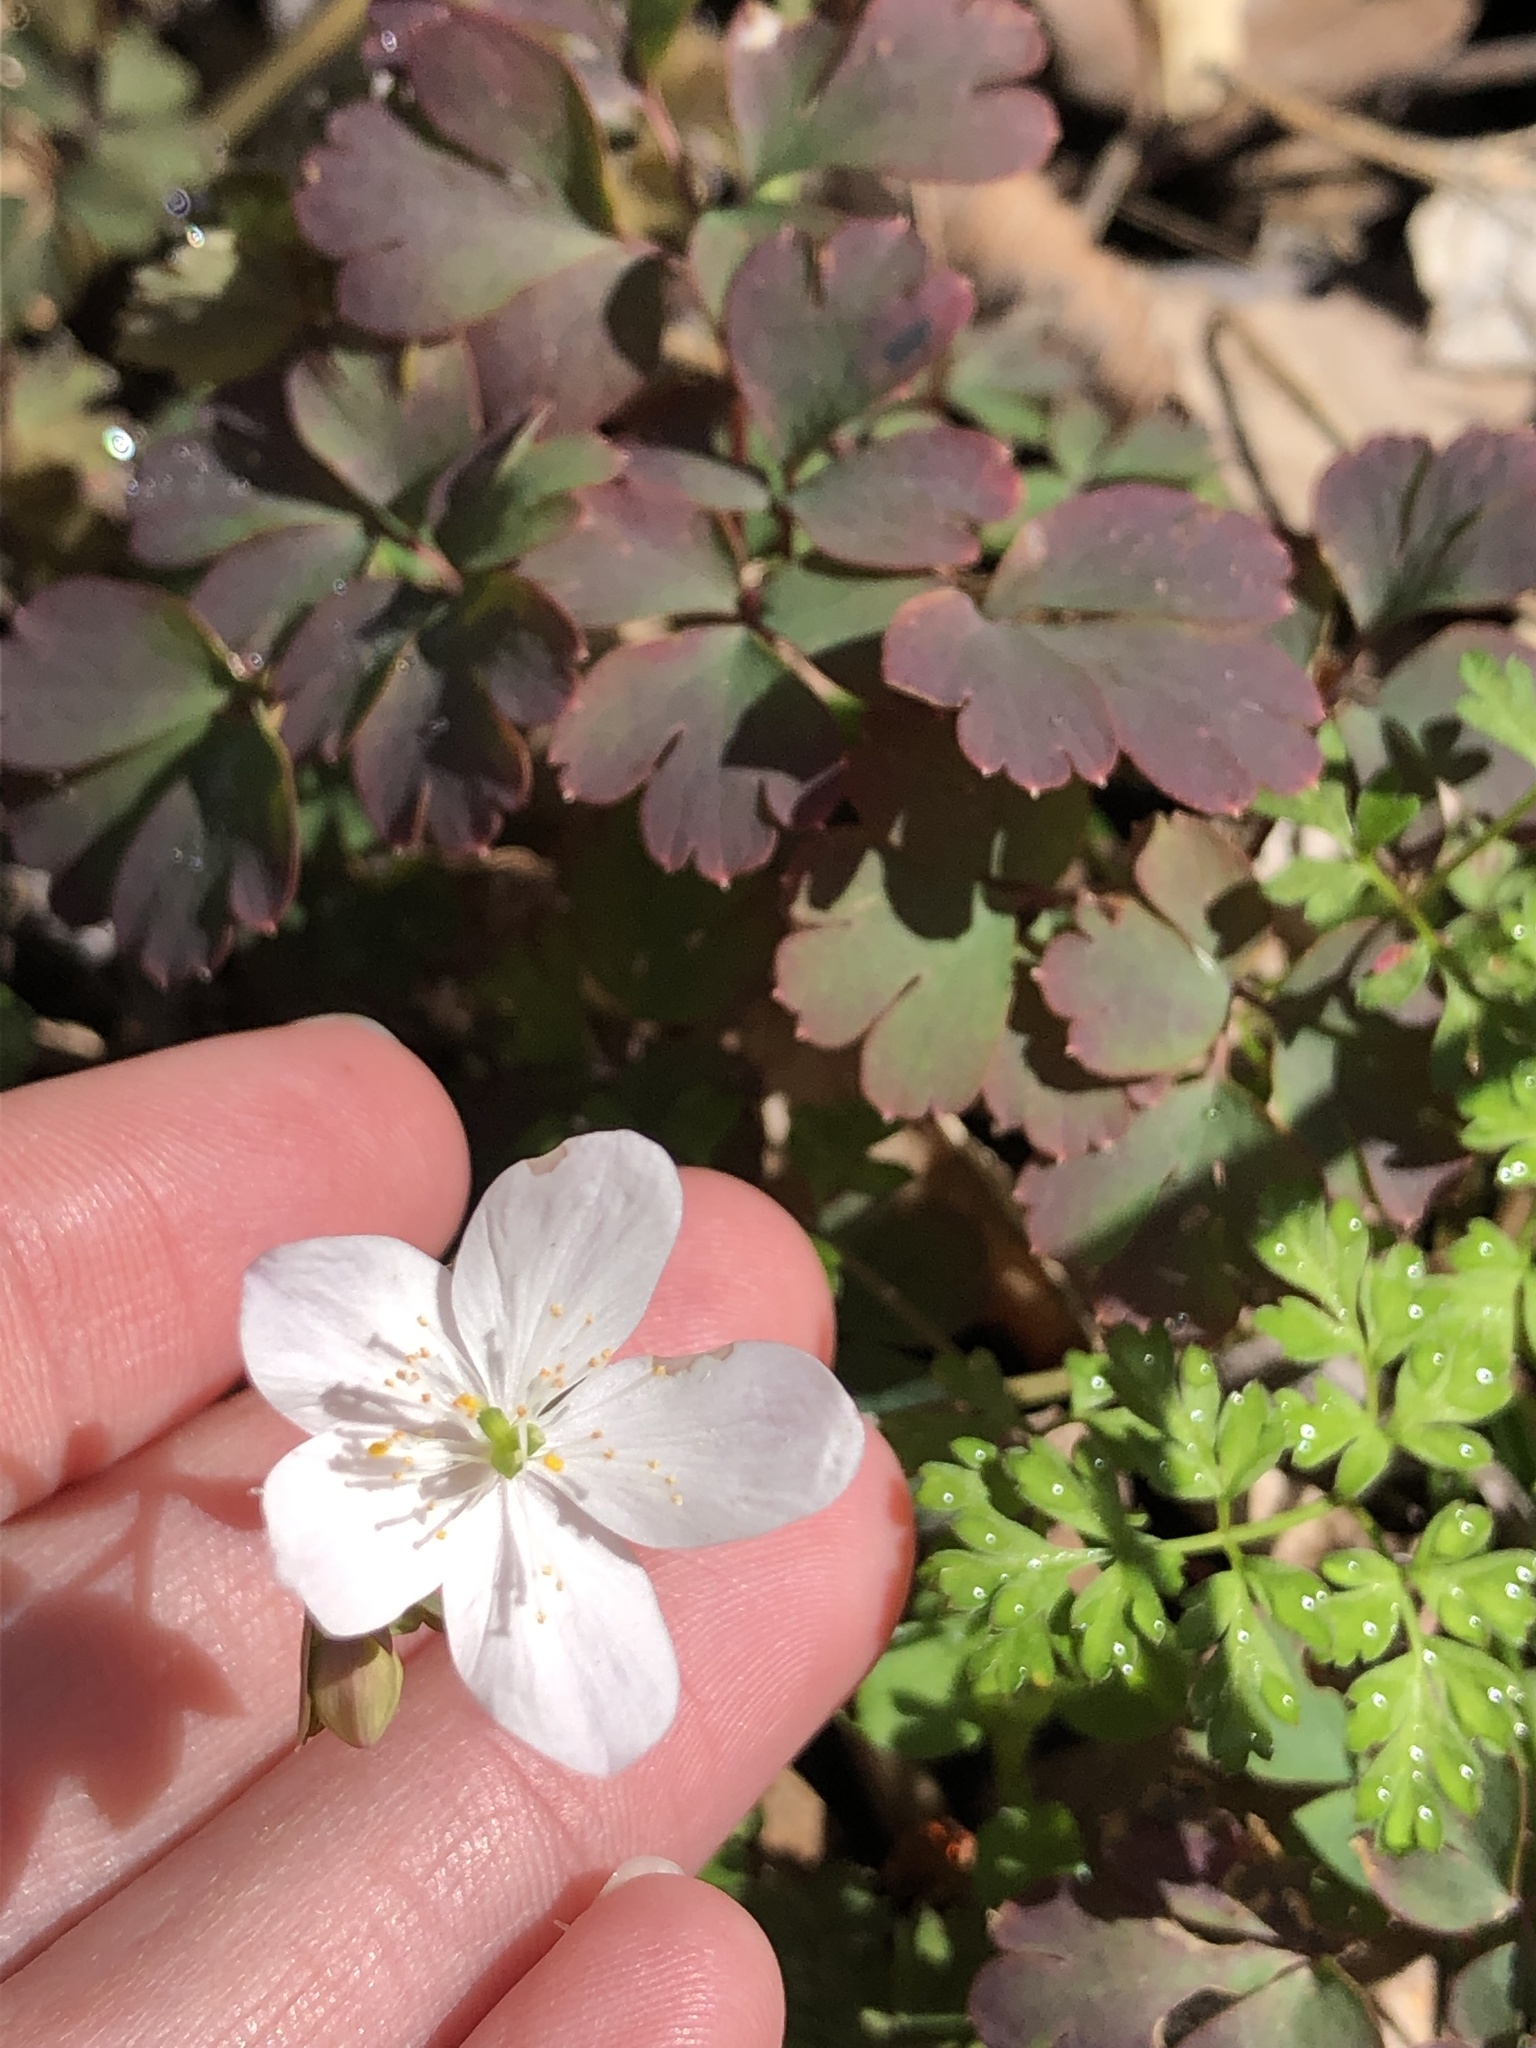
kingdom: Plantae
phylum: Tracheophyta
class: Magnoliopsida
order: Ranunculales
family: Ranunculaceae
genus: Enemion
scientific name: Enemion biternatum
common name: Eastern false rue-anemone
